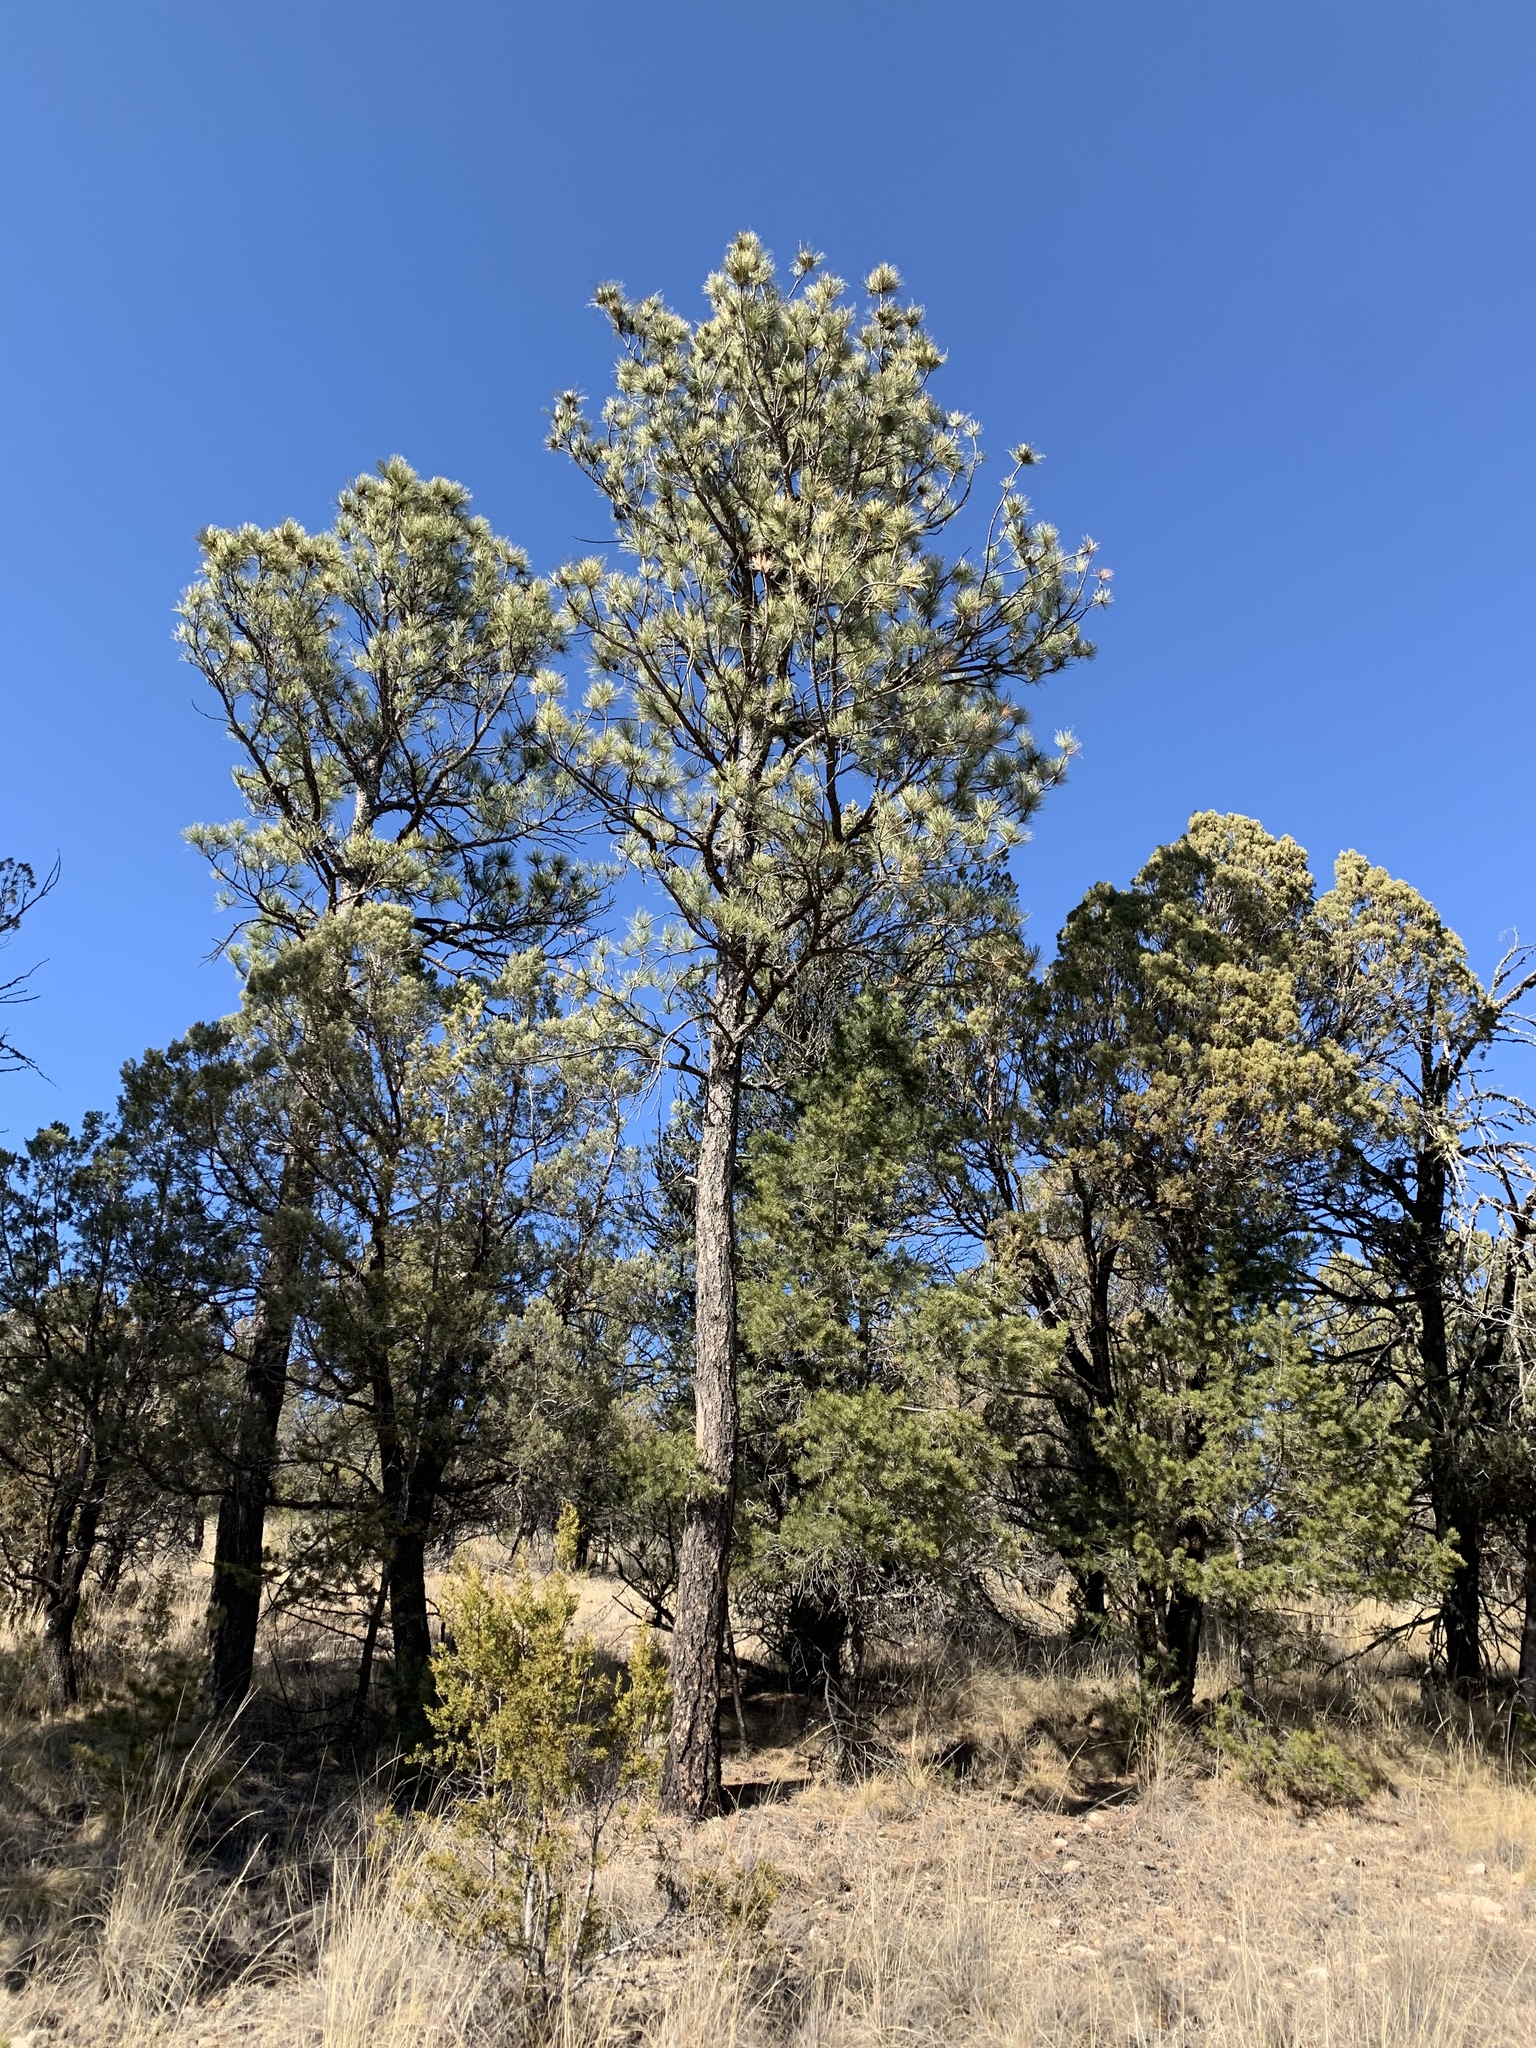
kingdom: Plantae
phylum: Tracheophyta
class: Pinopsida
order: Pinales
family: Pinaceae
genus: Pinus
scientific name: Pinus ponderosa
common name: Western yellow-pine
